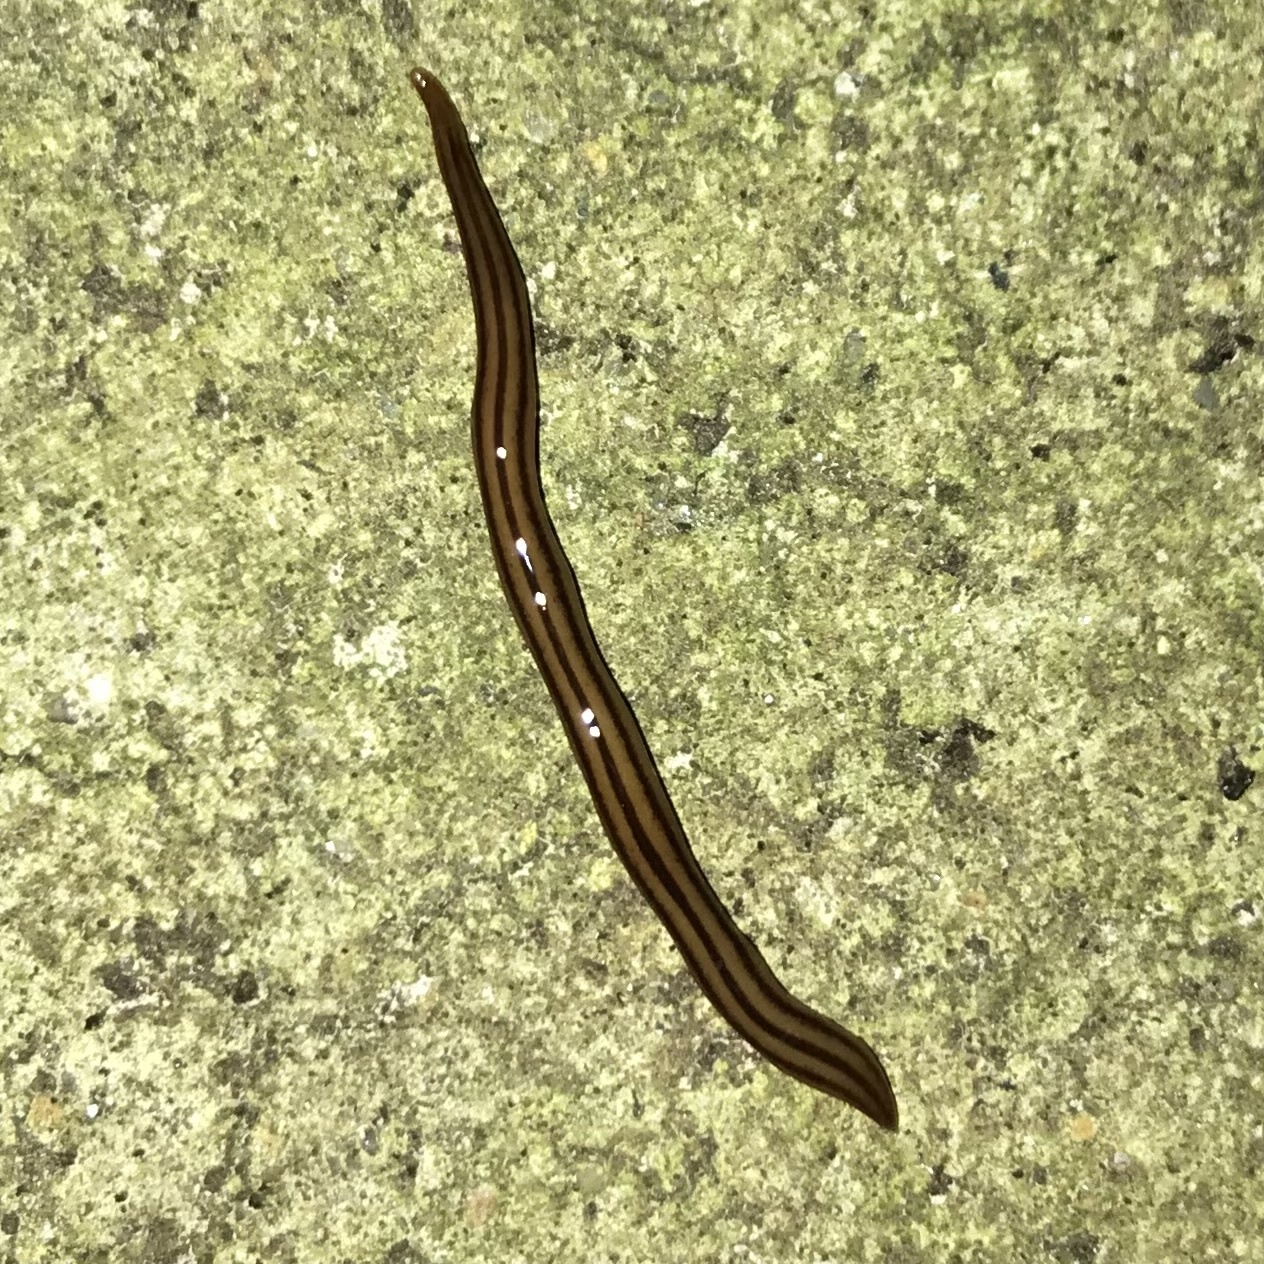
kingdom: Animalia
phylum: Platyhelminthes
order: Tricladida
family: Geoplanidae
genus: Anzoplana
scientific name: Anzoplana trilineata
